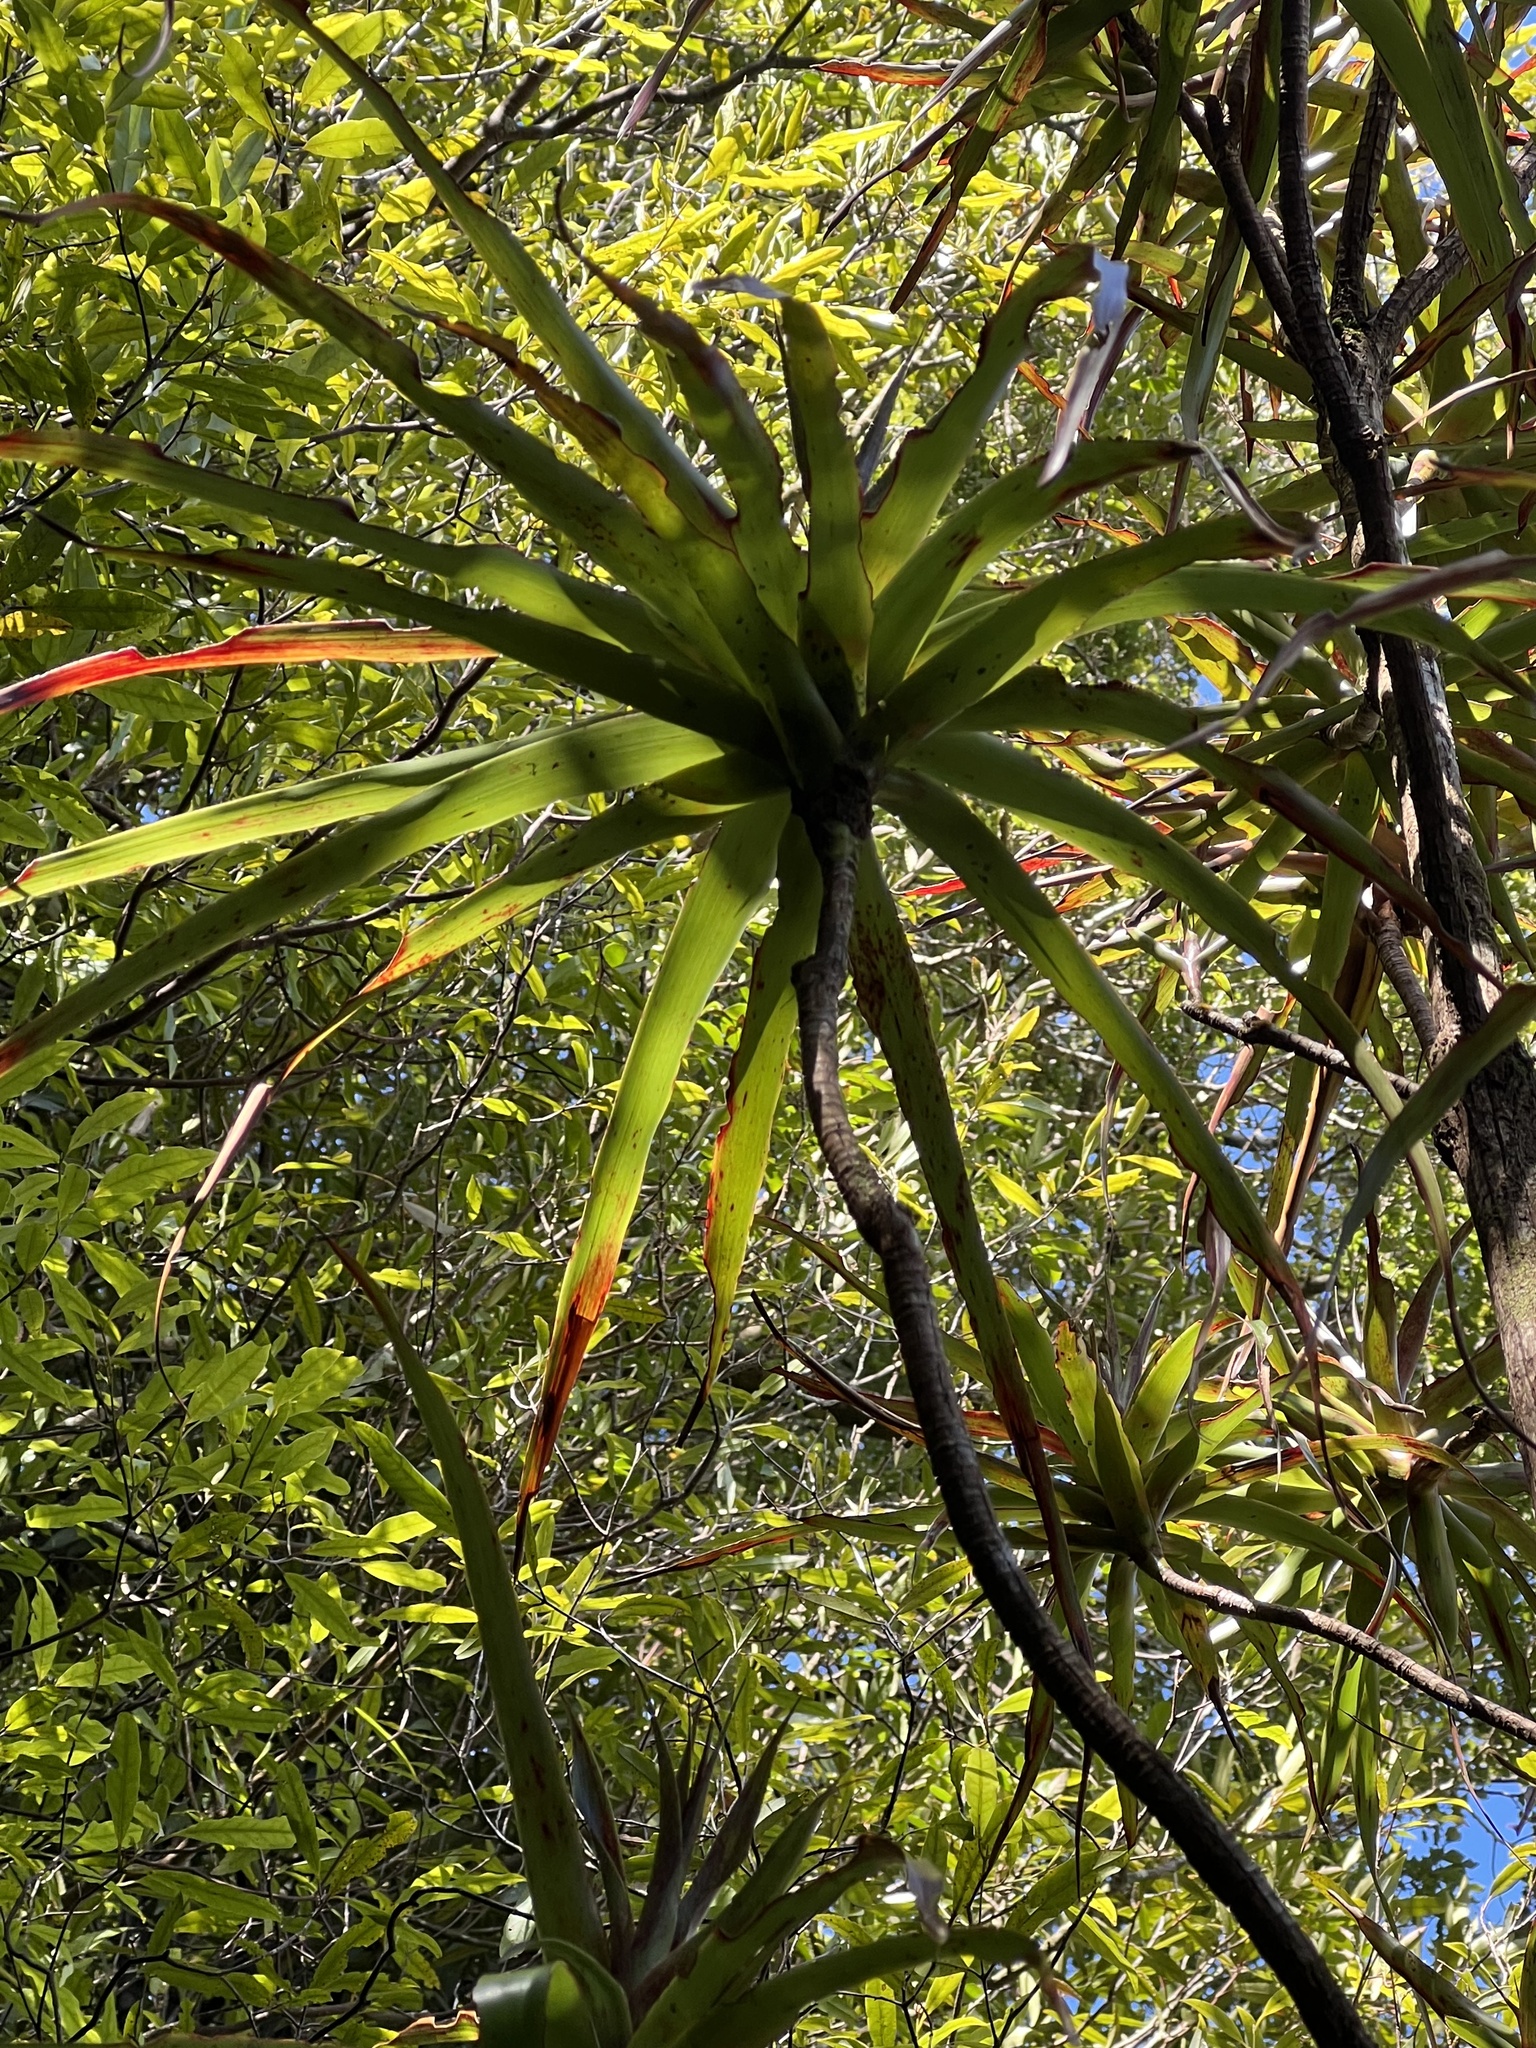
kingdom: Plantae
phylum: Tracheophyta
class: Magnoliopsida
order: Ericales
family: Ericaceae
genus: Dracophyllum
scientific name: Dracophyllum latifolium
